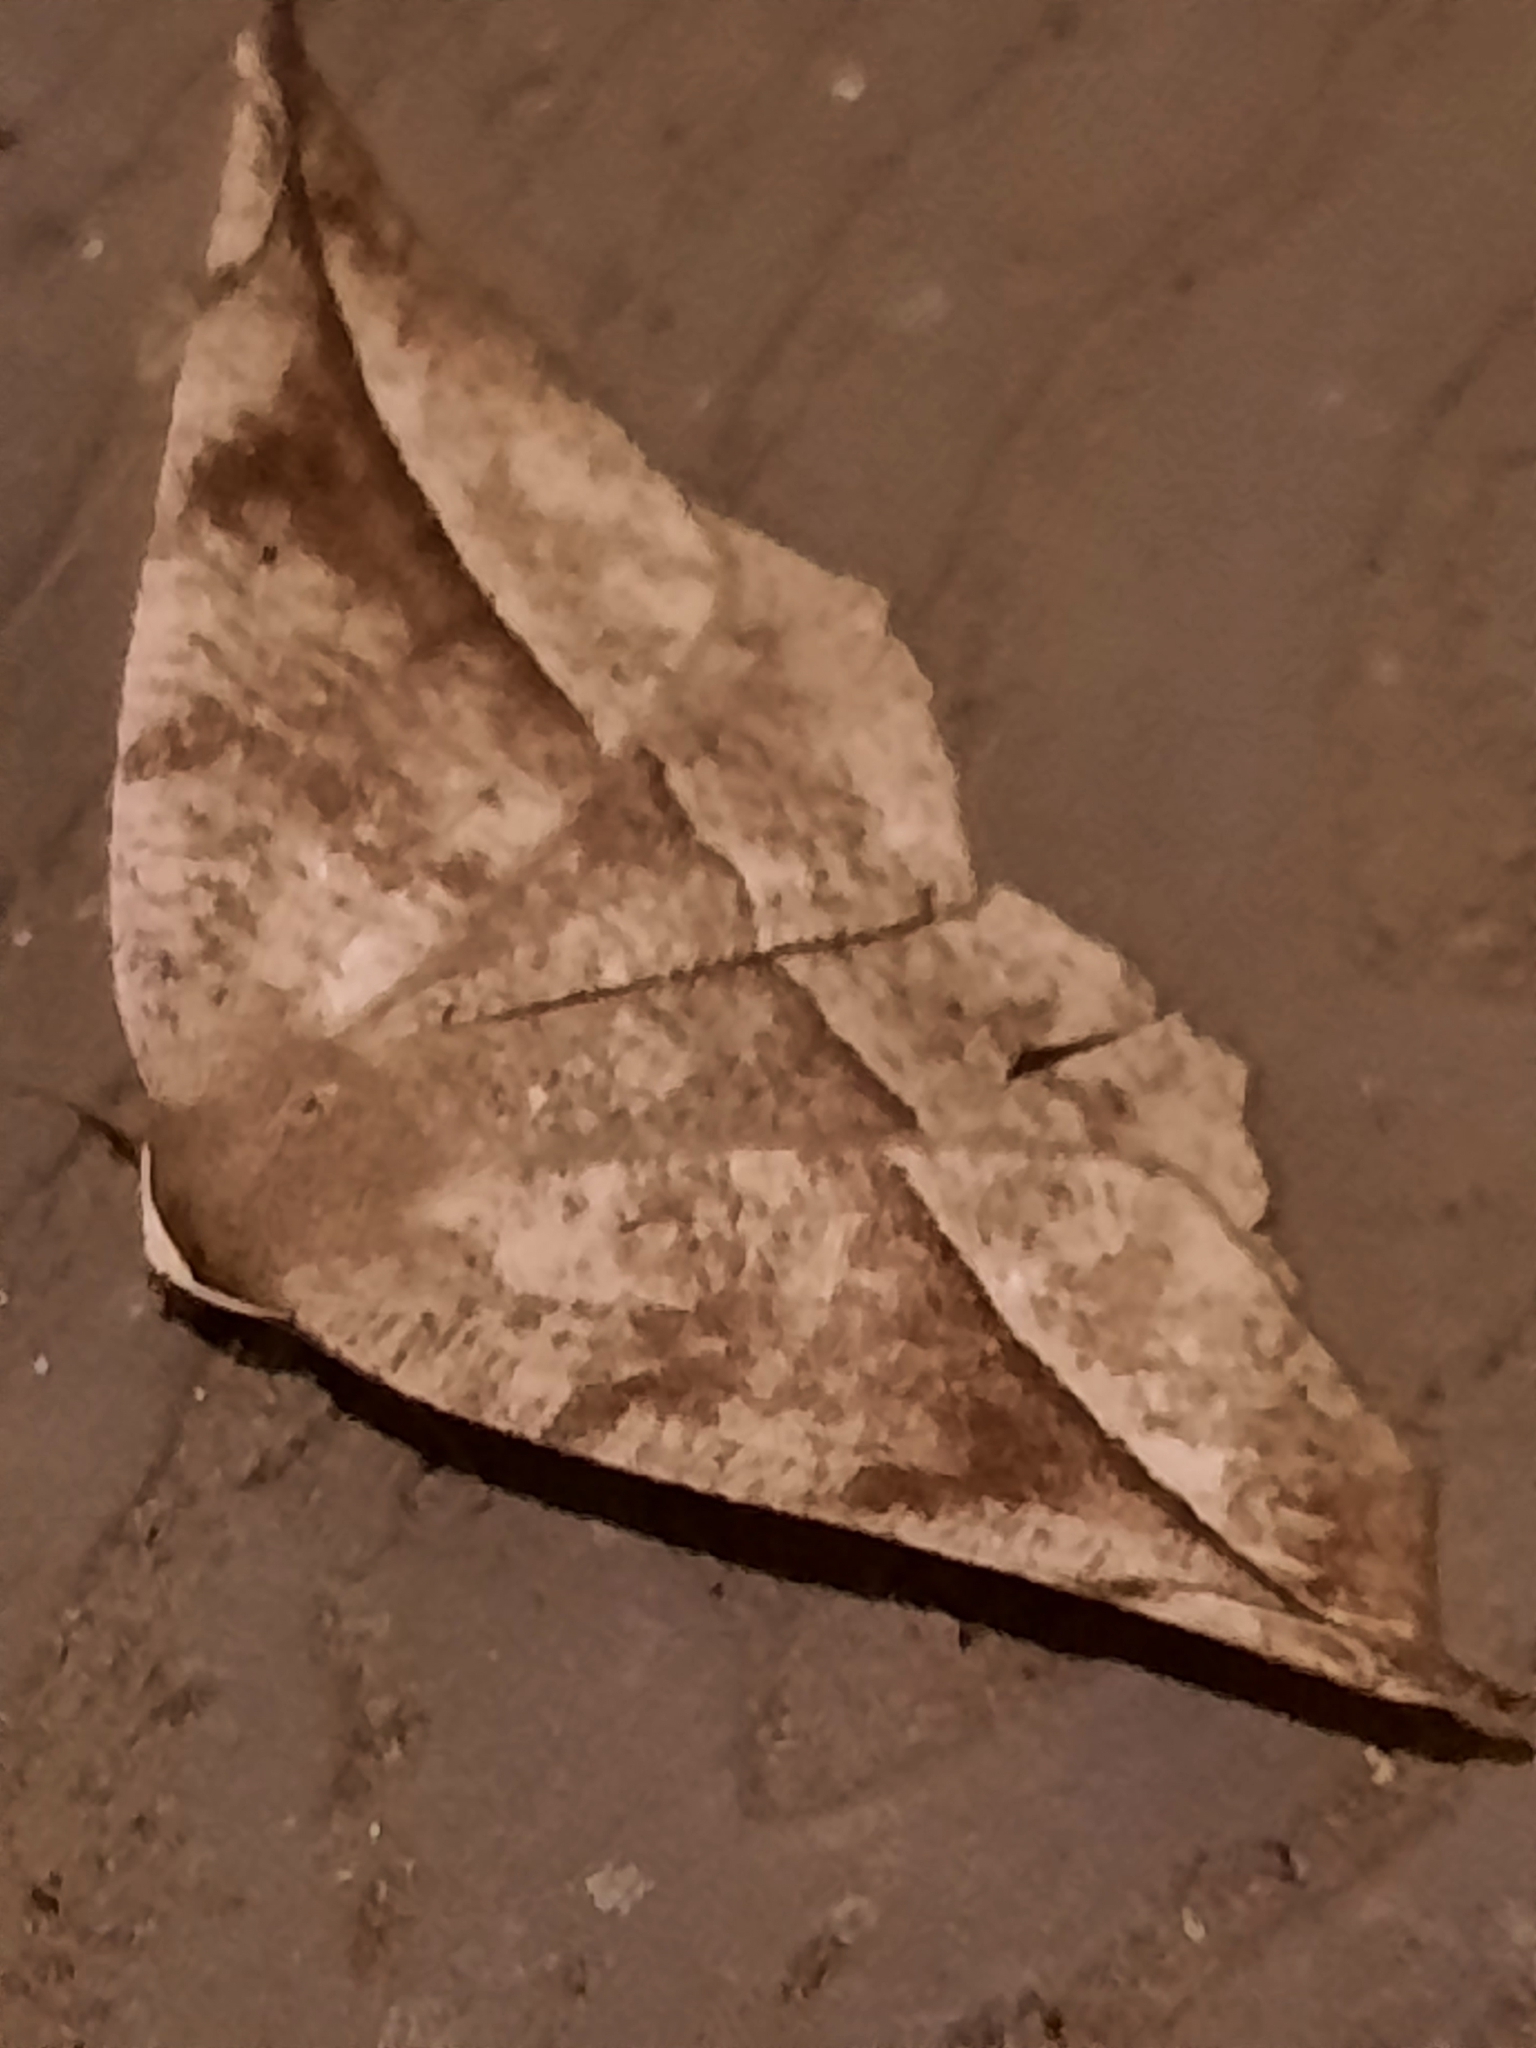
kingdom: Animalia
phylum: Arthropoda
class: Insecta
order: Lepidoptera
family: Geometridae
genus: Eutrapela
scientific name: Eutrapela clemataria
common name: Curved-toothed geometer
